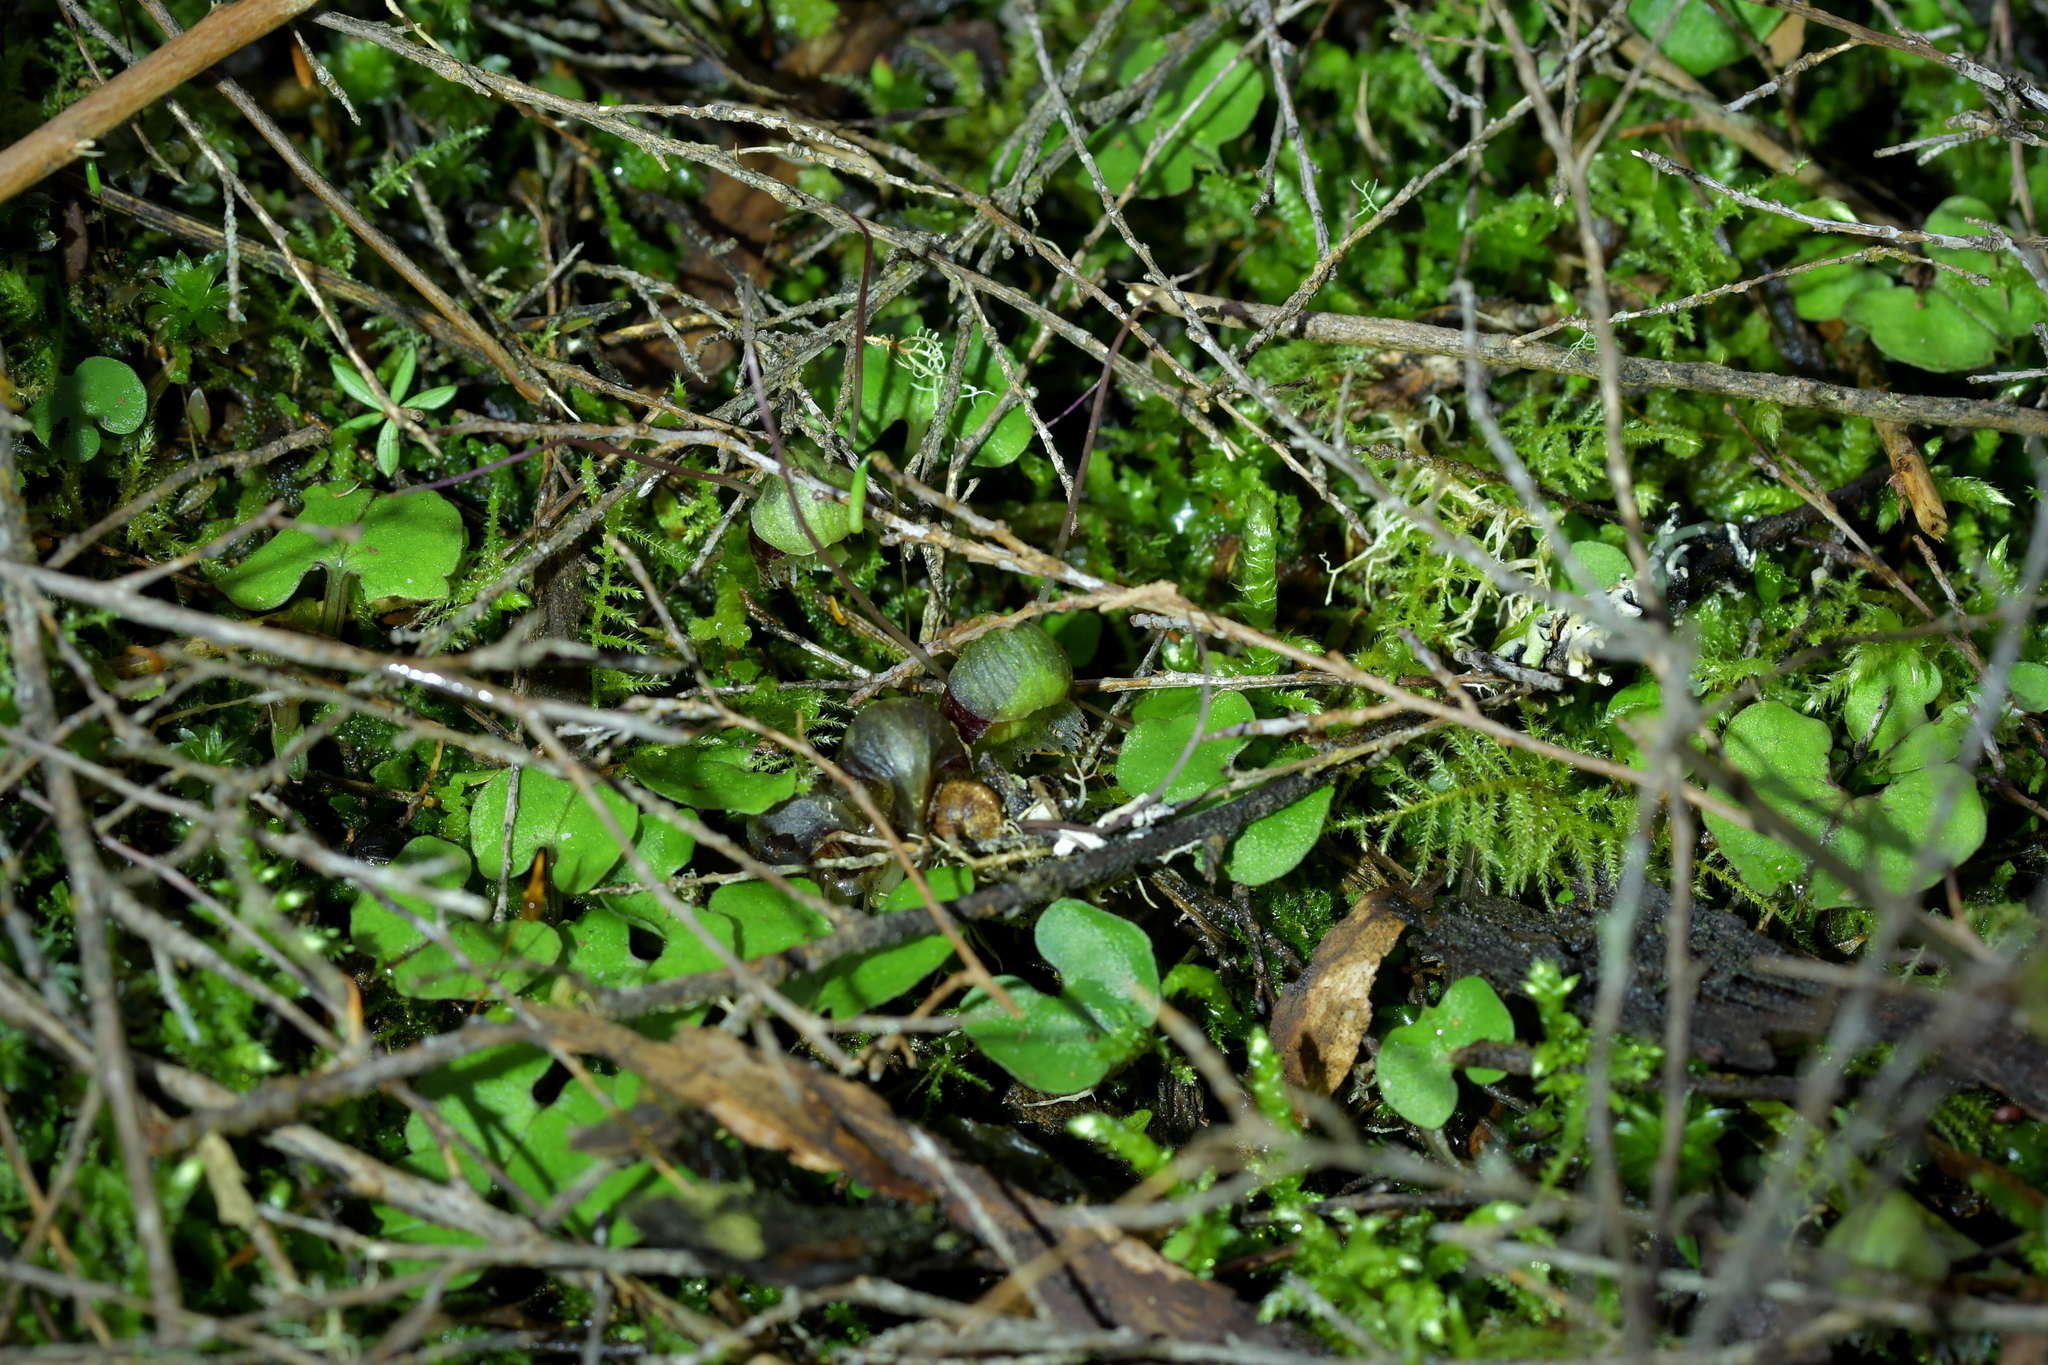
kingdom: Plantae
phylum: Tracheophyta
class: Liliopsida
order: Asparagales
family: Orchidaceae
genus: Corybas
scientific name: Corybas vitreus
